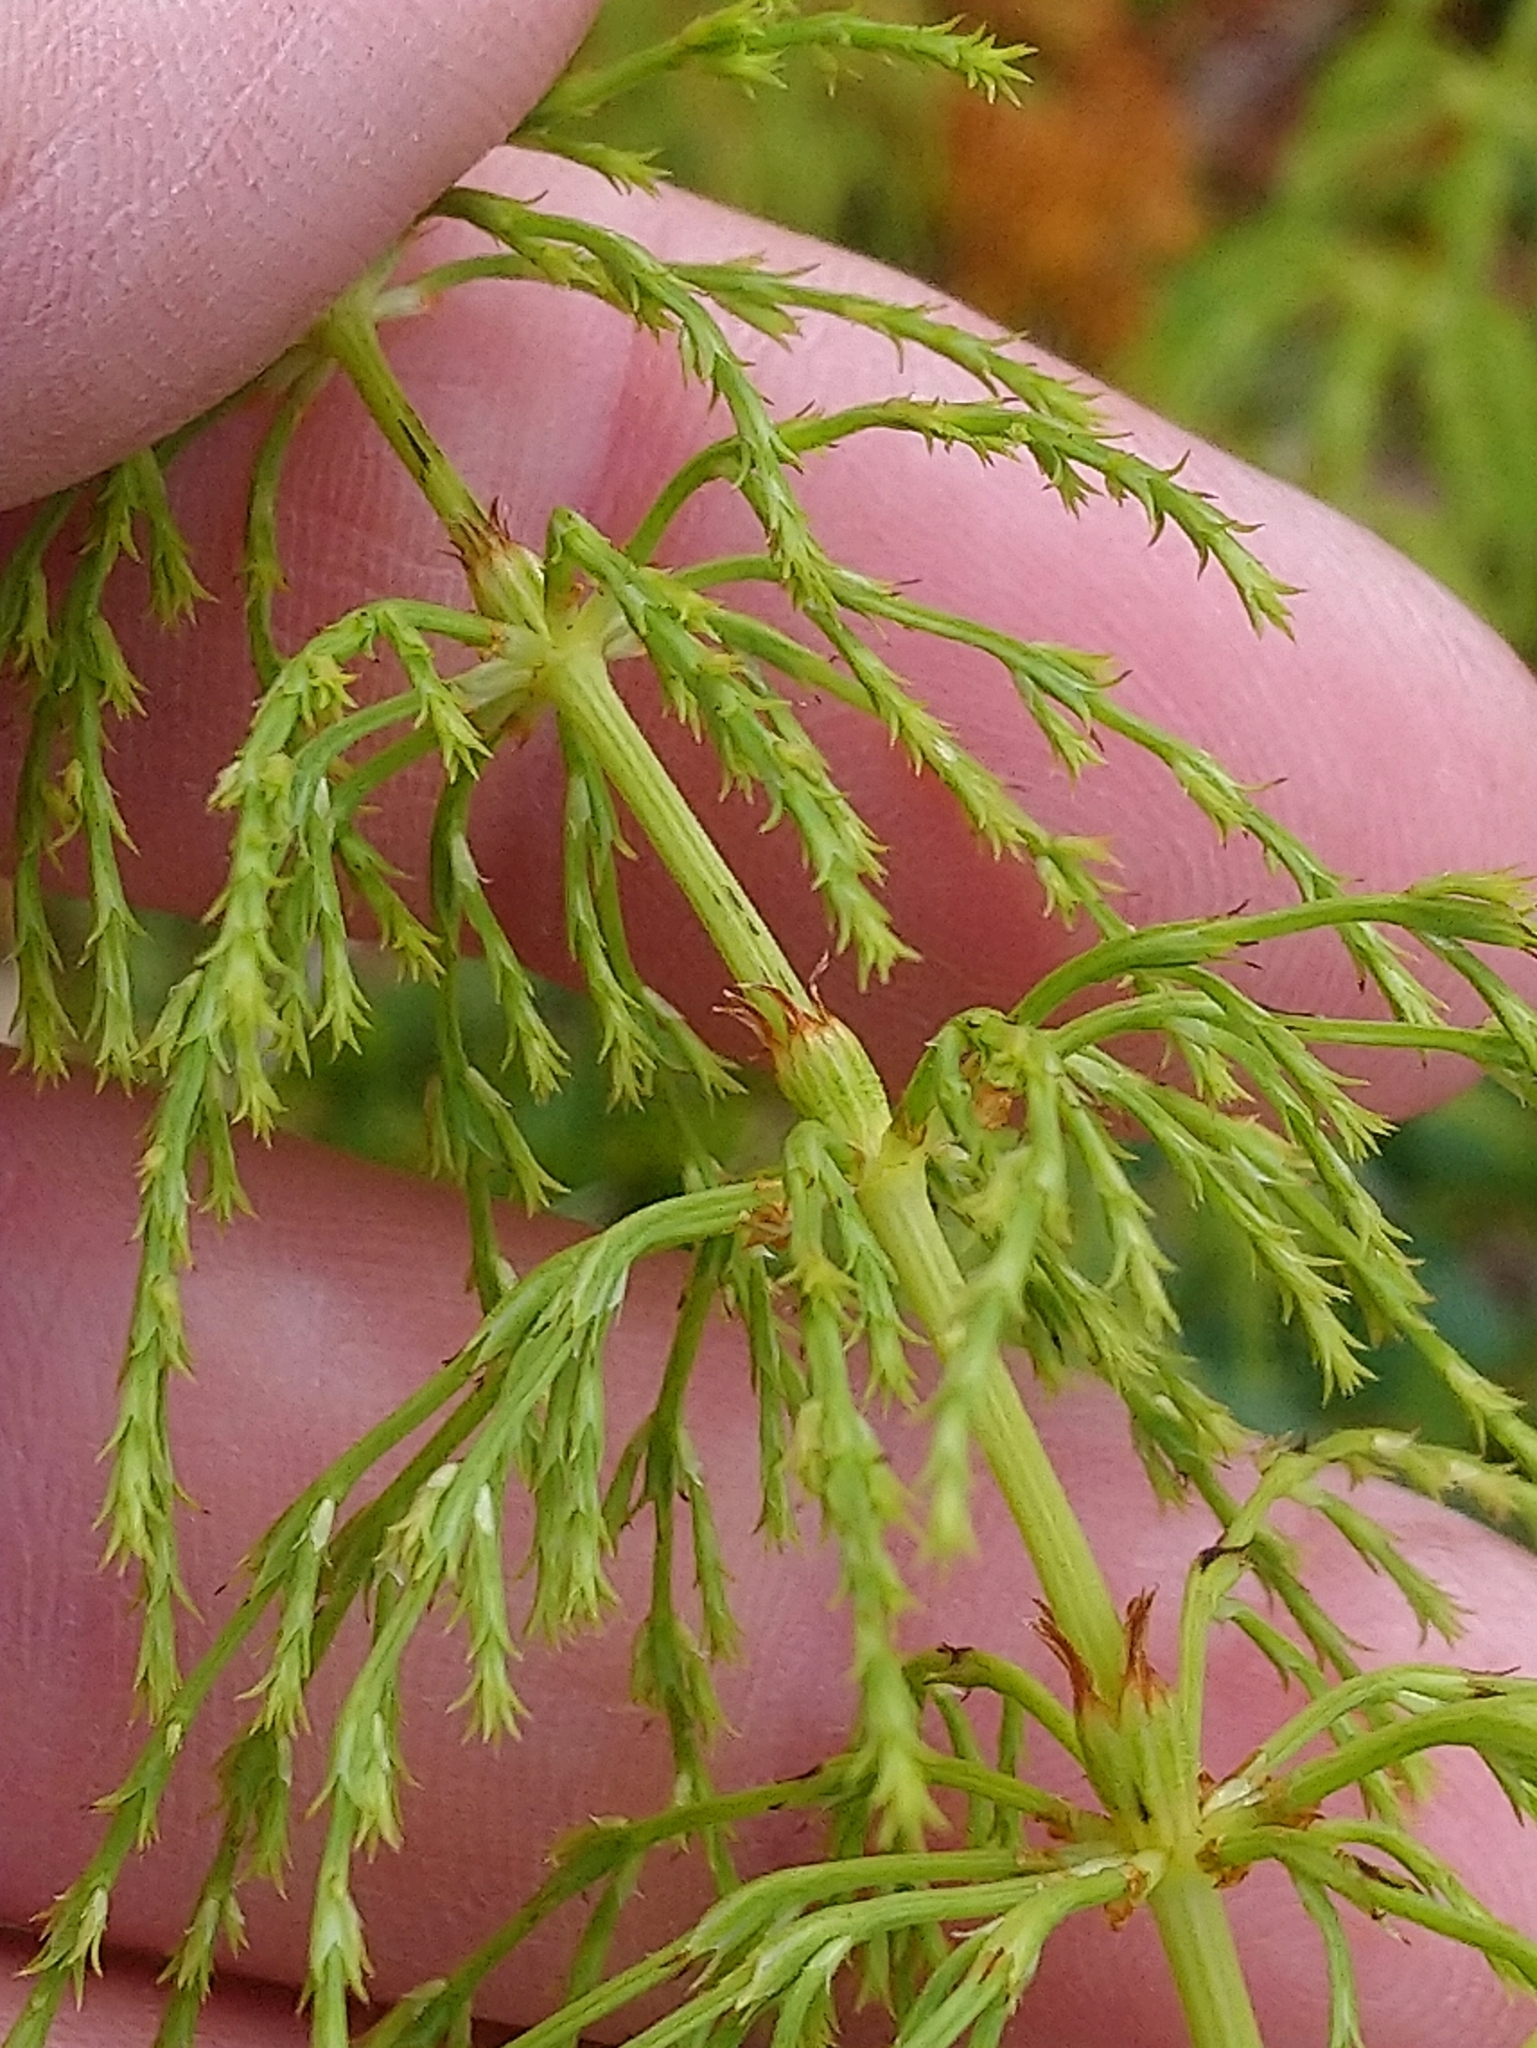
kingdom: Plantae
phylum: Tracheophyta
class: Polypodiopsida
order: Equisetales
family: Equisetaceae
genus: Equisetum
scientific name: Equisetum sylvaticum
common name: Wood horsetail
